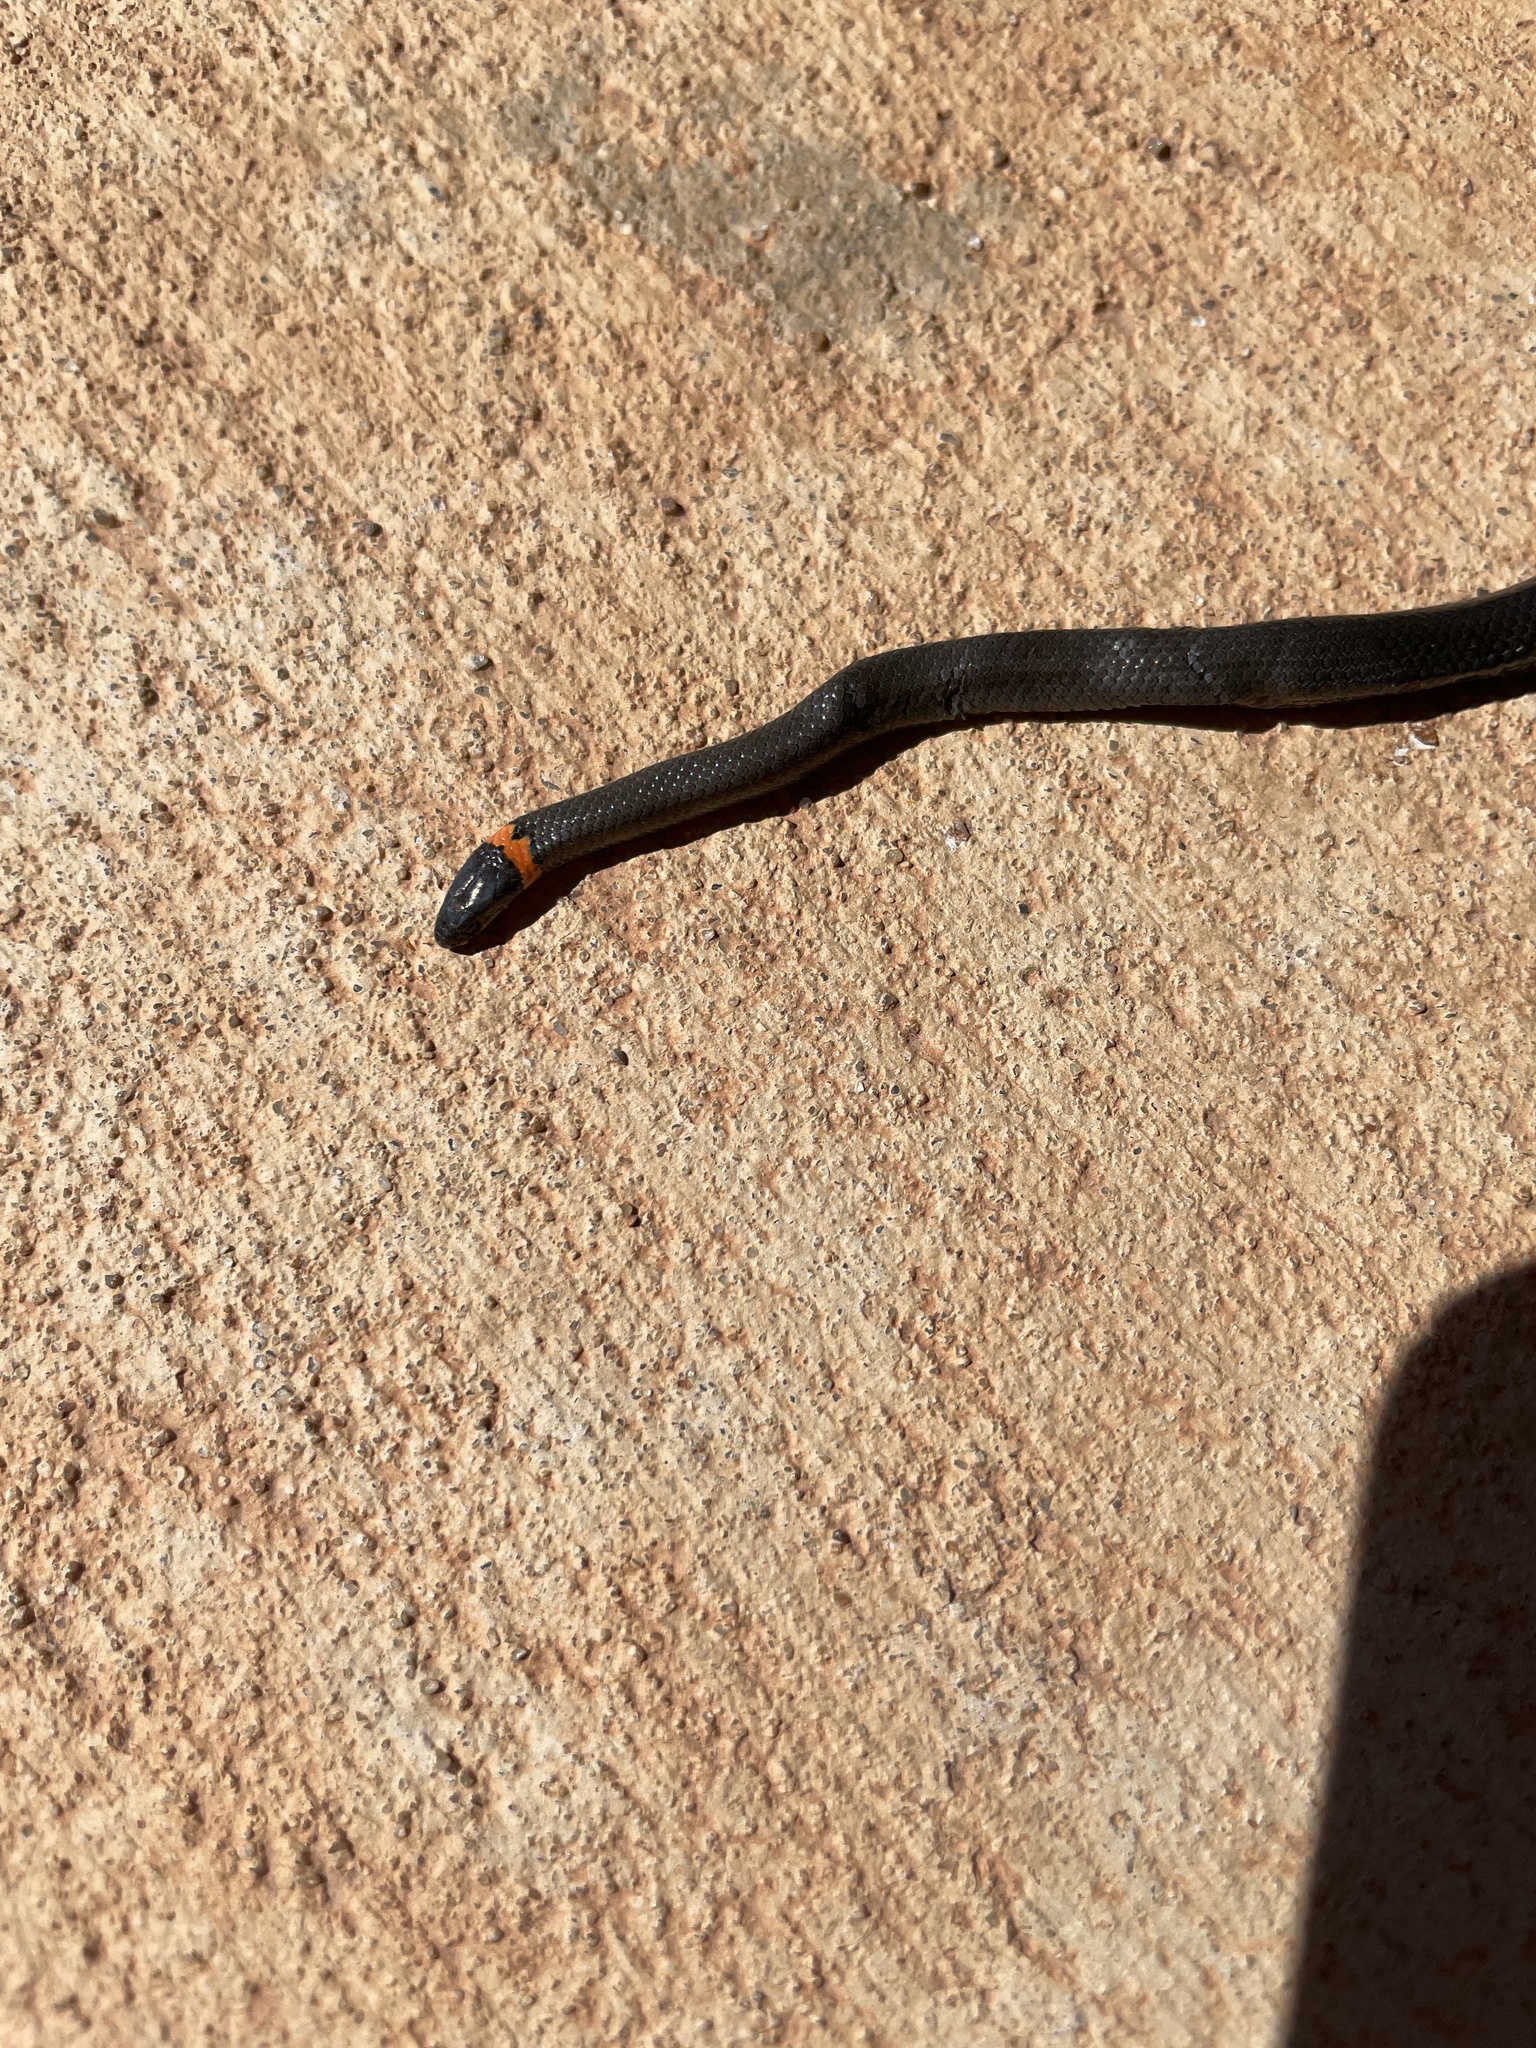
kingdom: Animalia
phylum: Chordata
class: Squamata
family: Colubridae
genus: Diadophis
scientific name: Diadophis punctatus
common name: Ringneck snake
